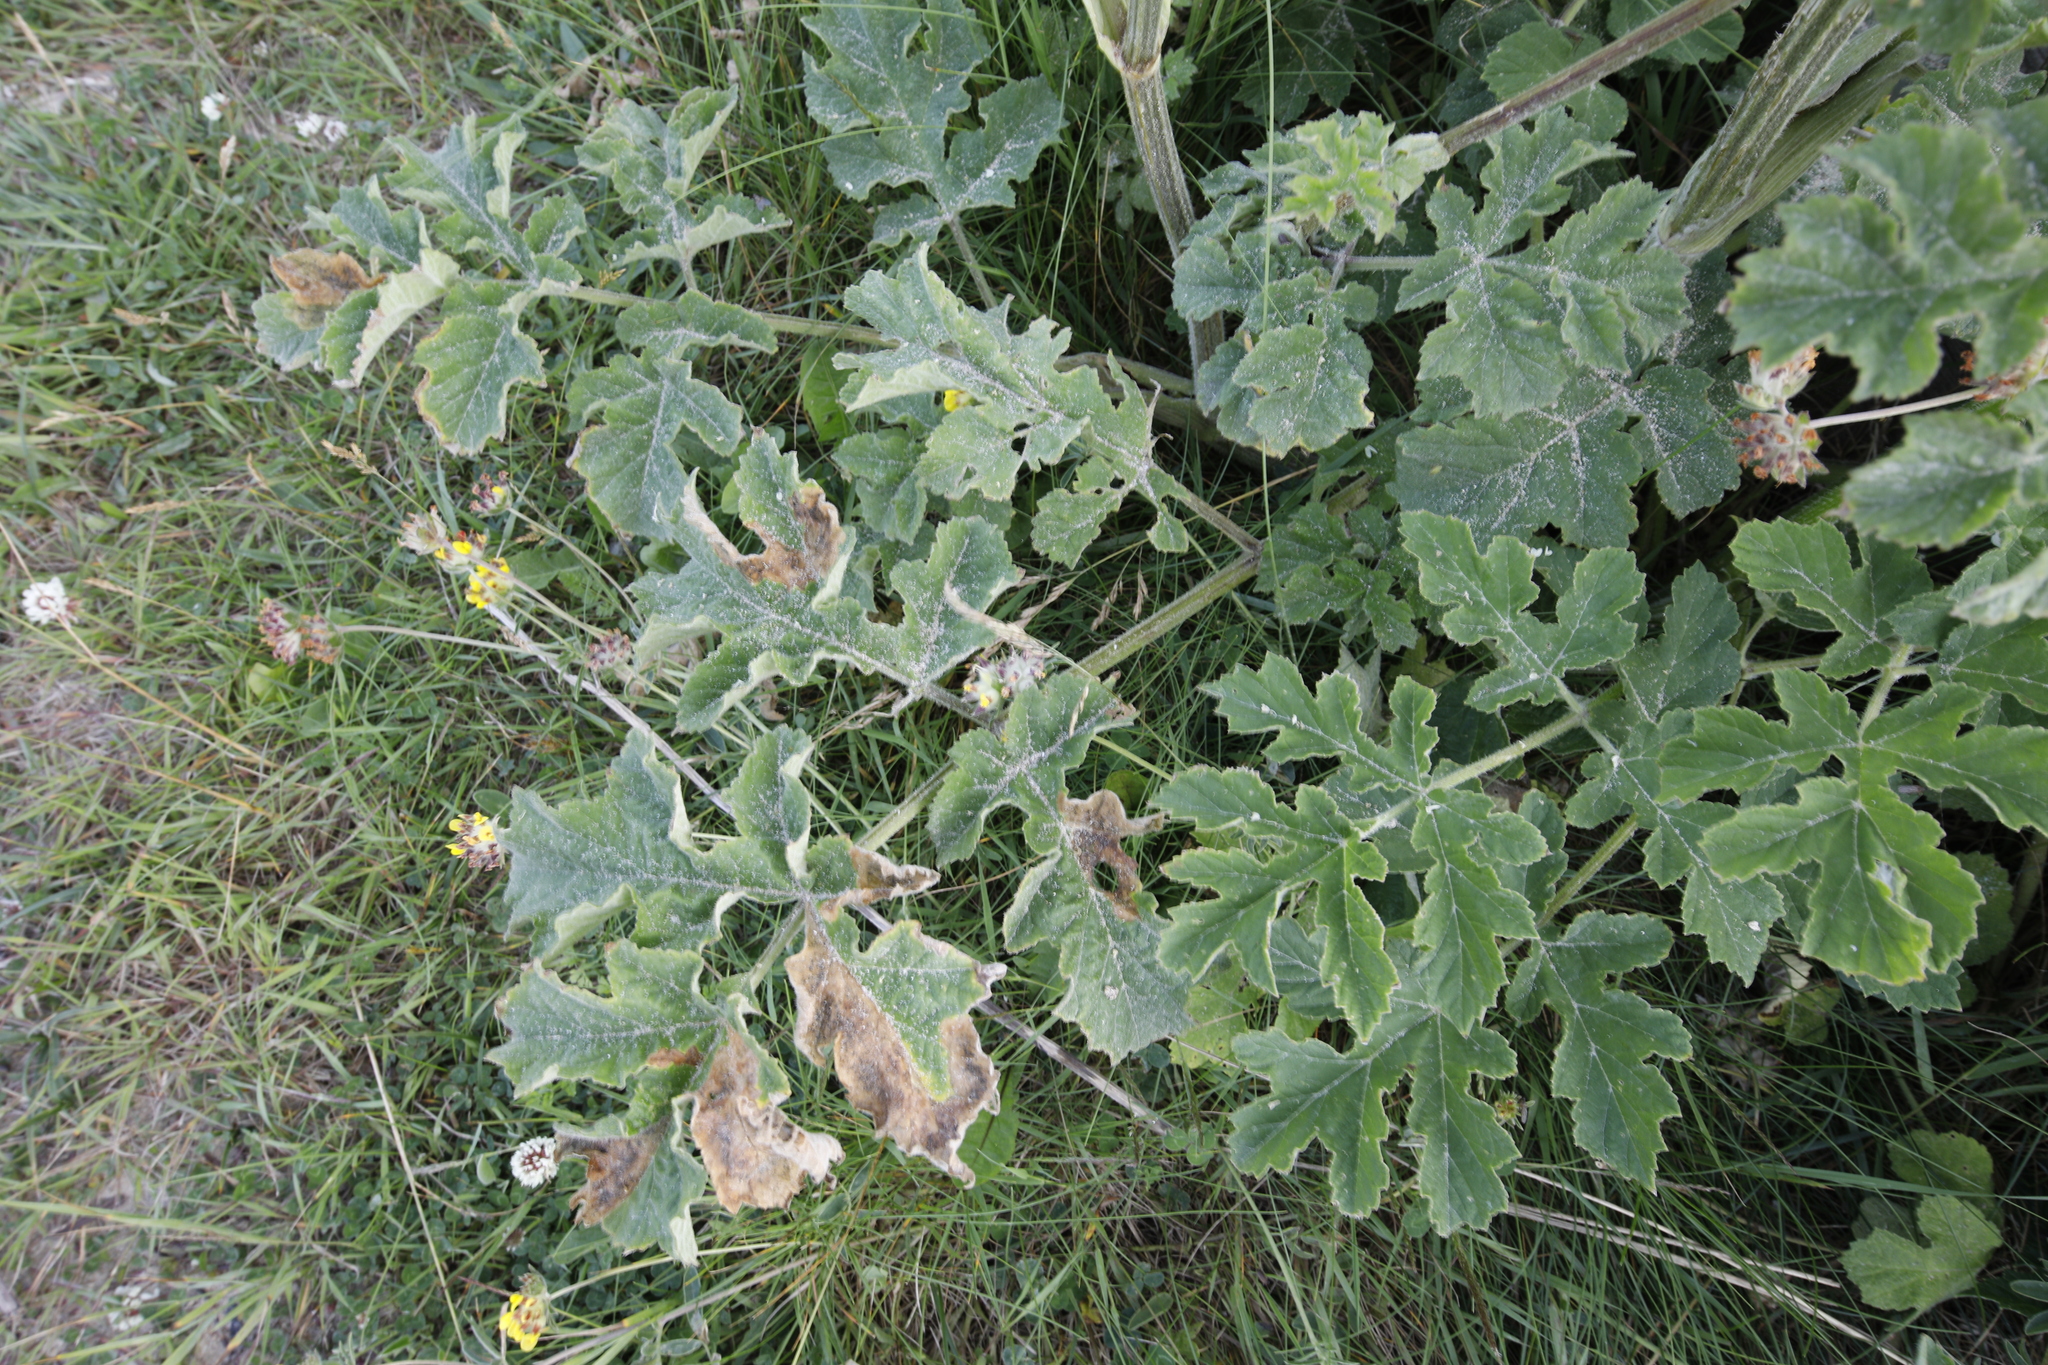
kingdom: Plantae
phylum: Tracheophyta
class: Magnoliopsida
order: Apiales
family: Apiaceae
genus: Heracleum
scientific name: Heracleum sphondylium
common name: Hogweed
